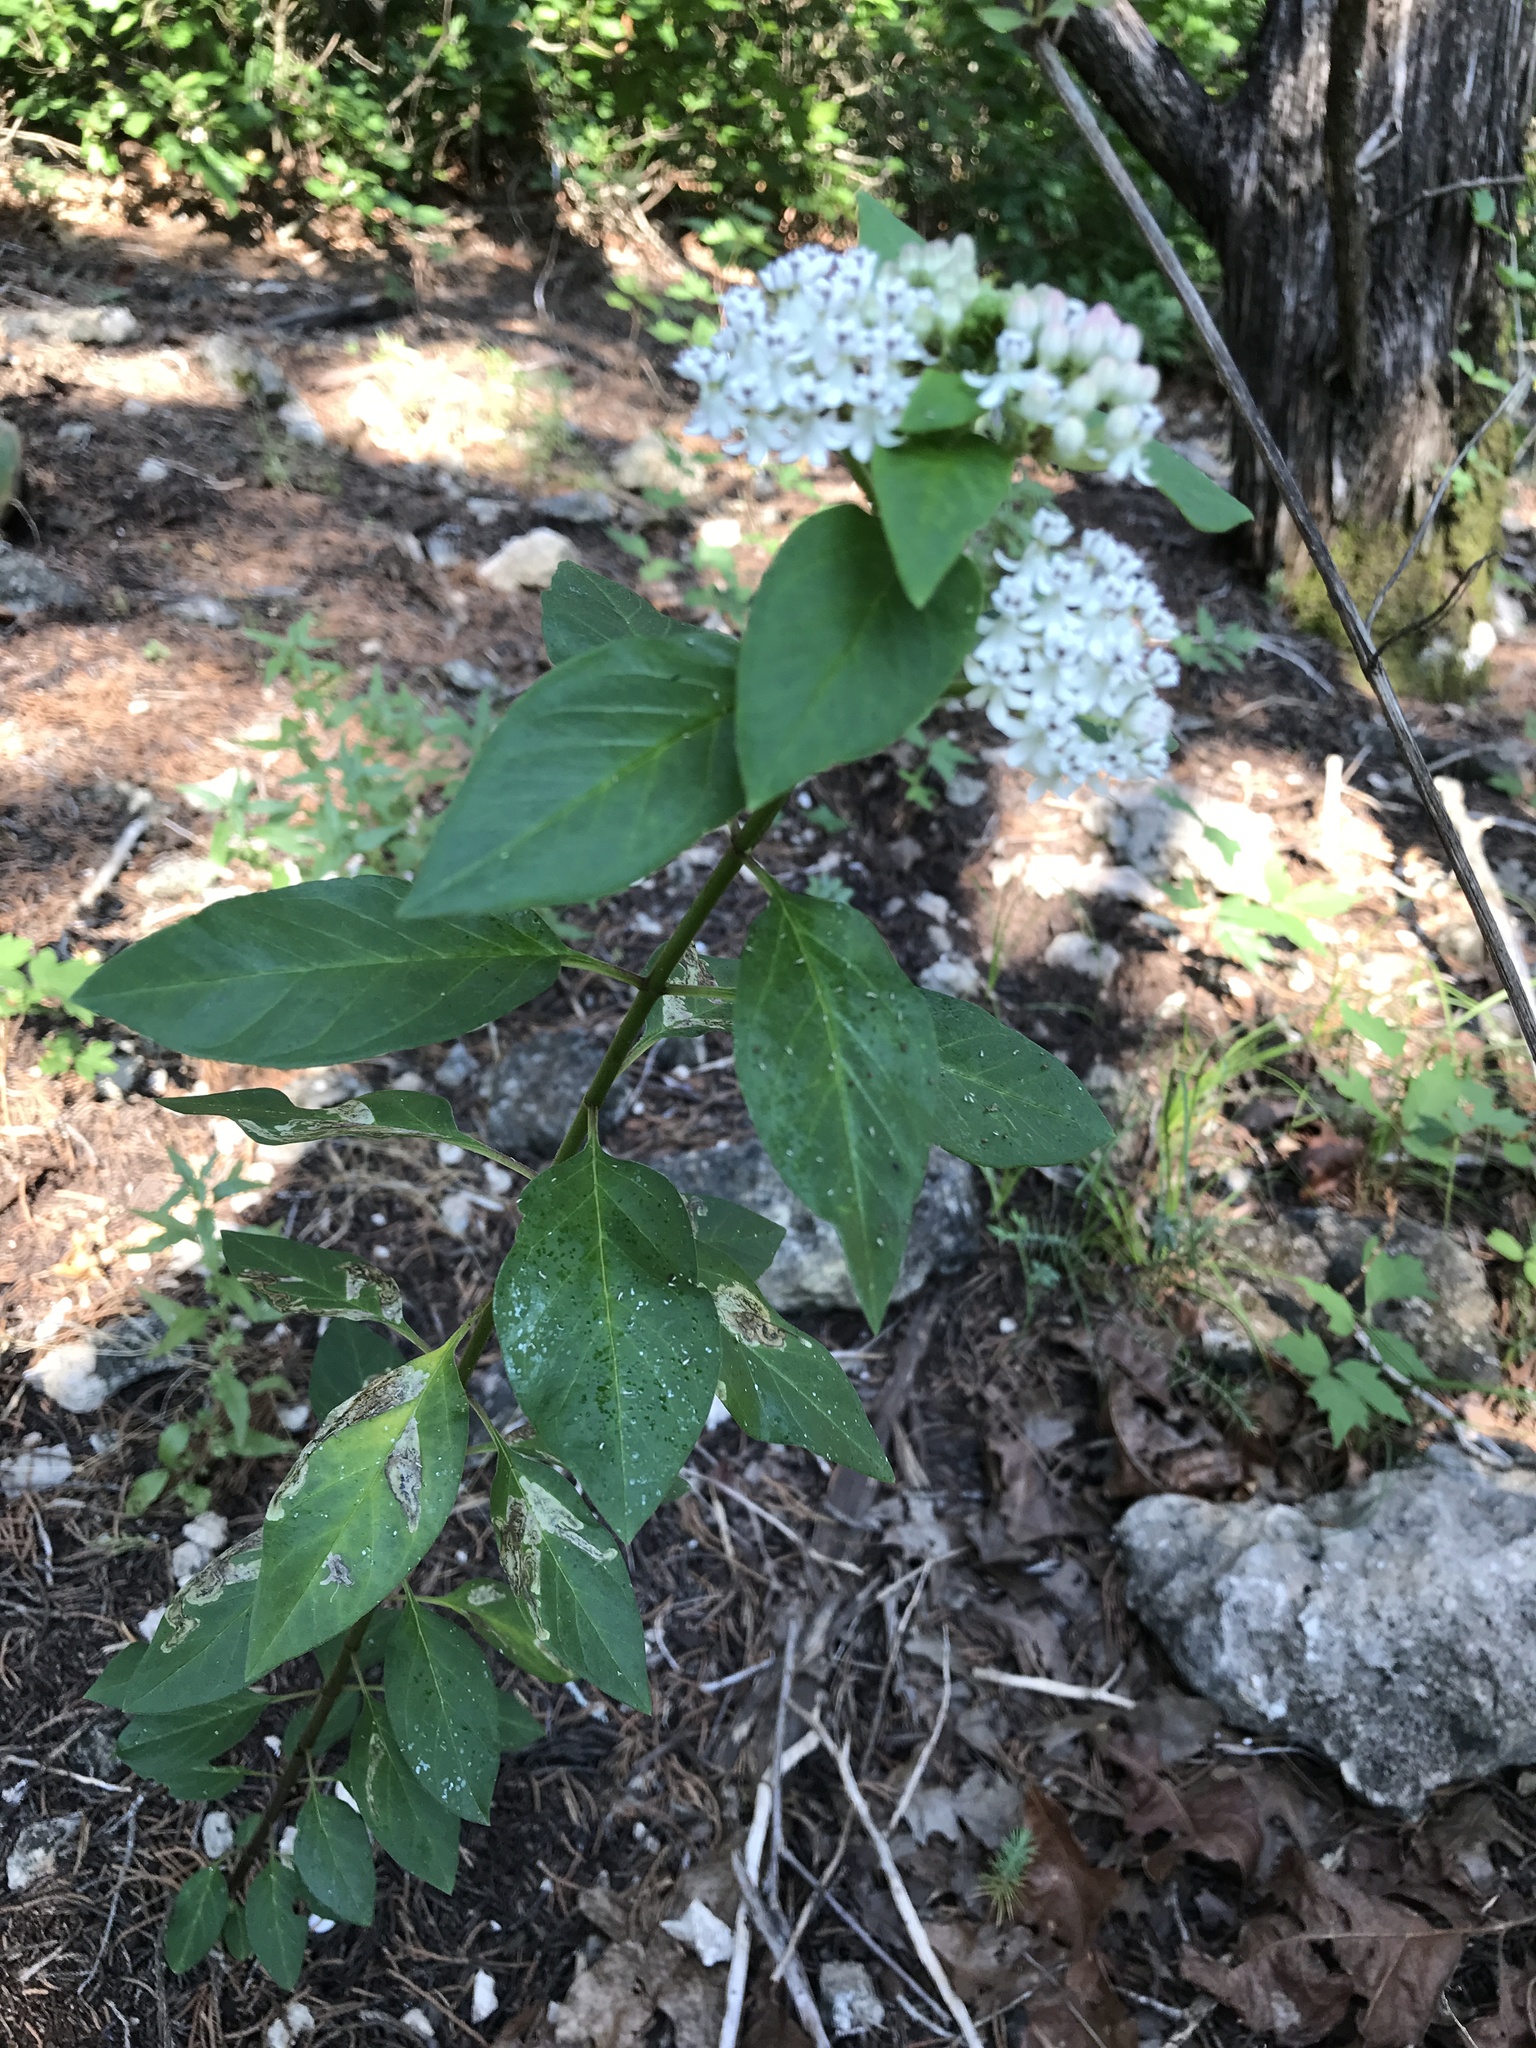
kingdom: Plantae
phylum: Tracheophyta
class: Magnoliopsida
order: Gentianales
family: Apocynaceae
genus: Asclepias
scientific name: Asclepias texana
